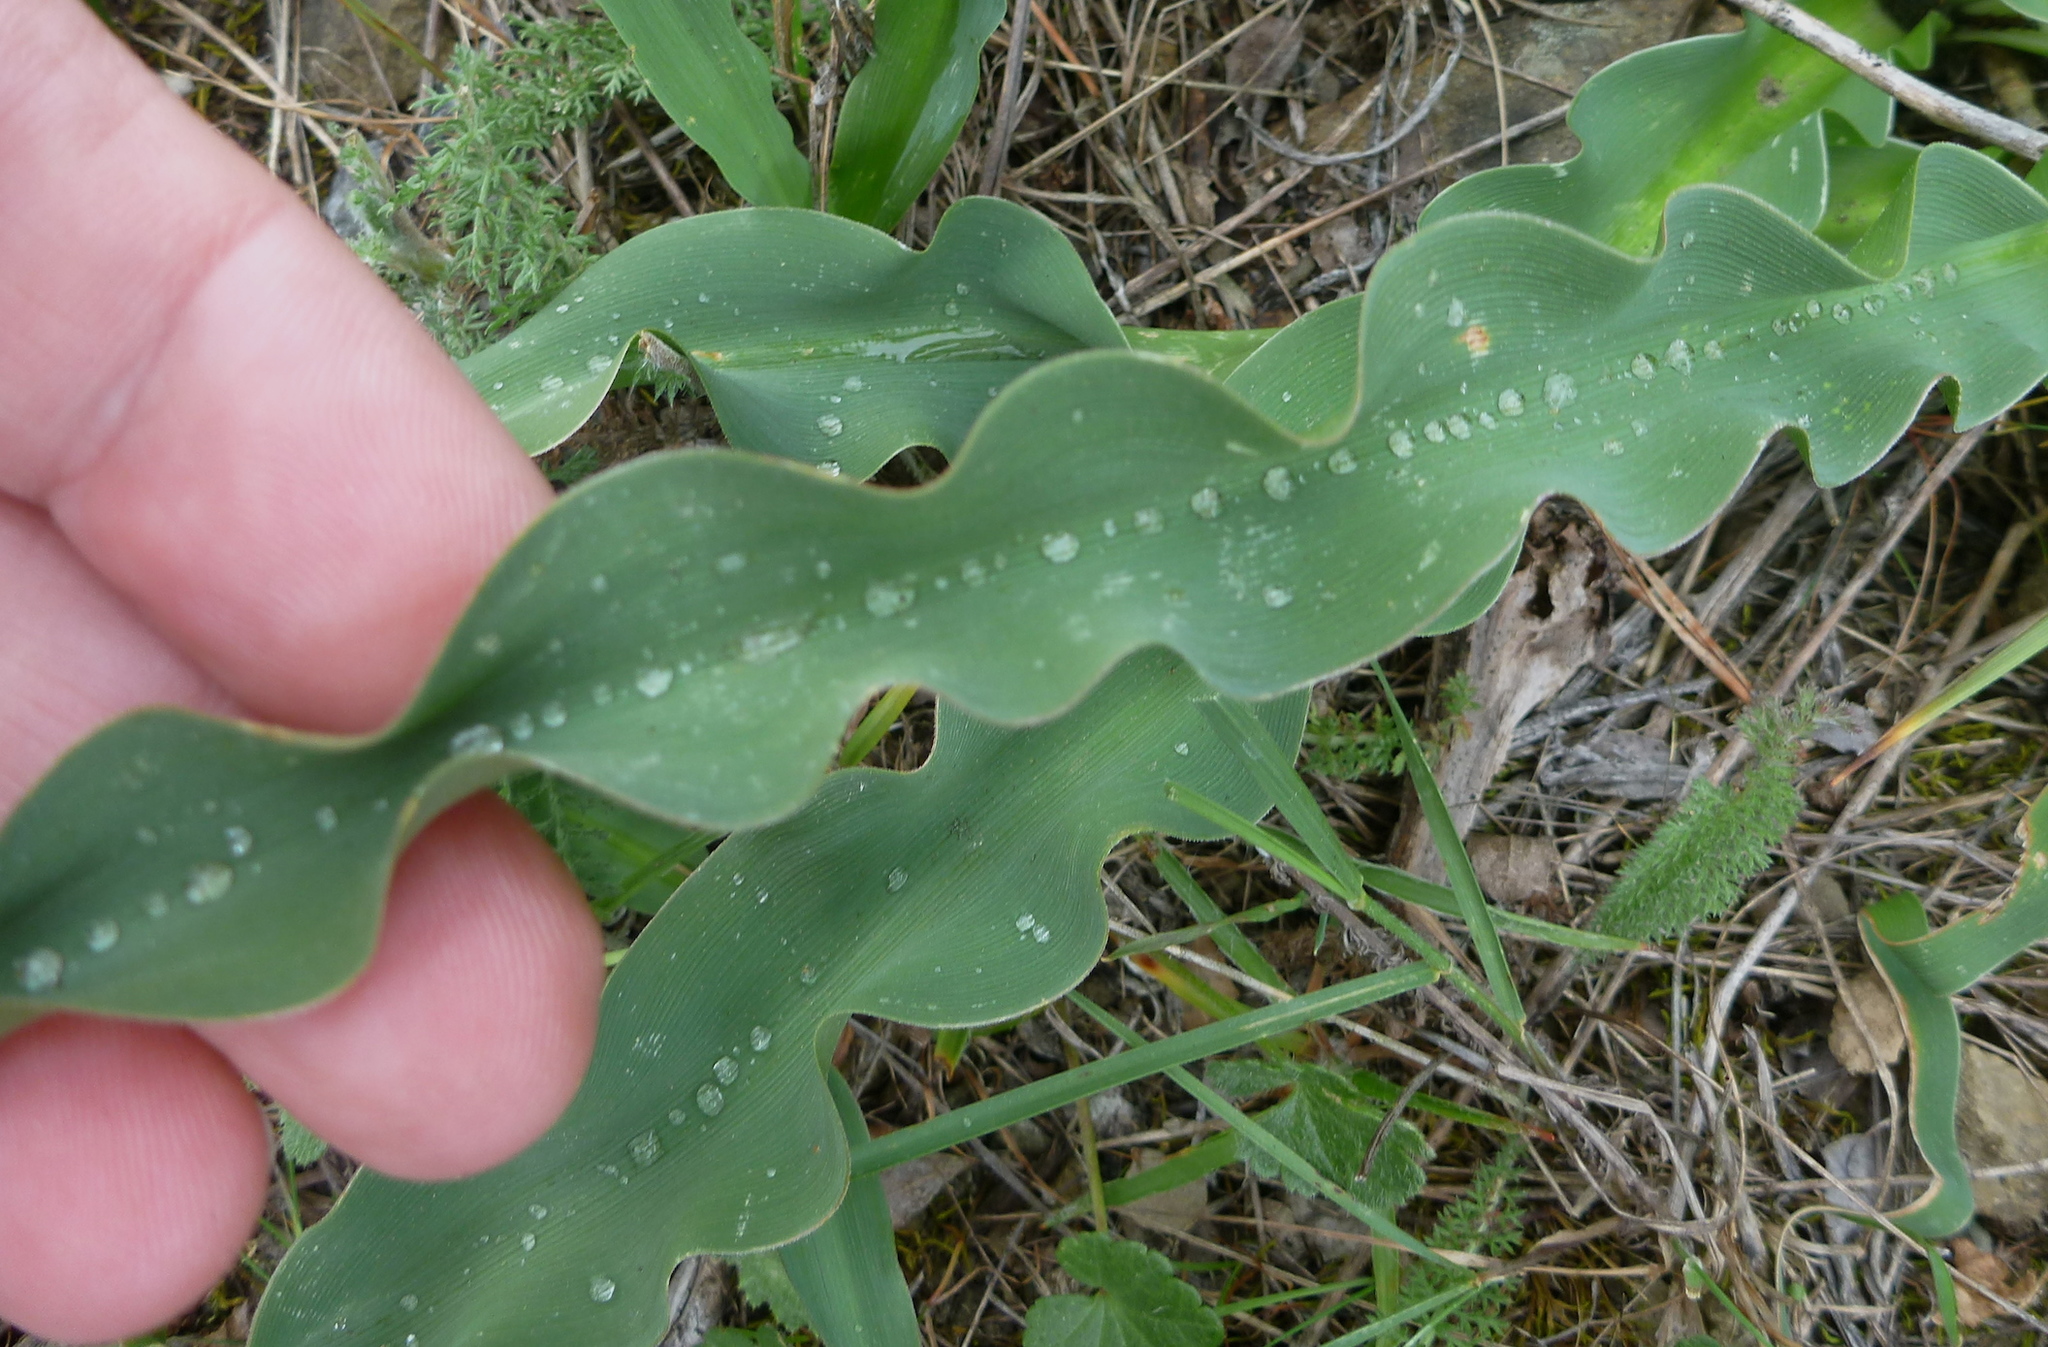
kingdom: Plantae
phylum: Tracheophyta
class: Liliopsida
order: Asparagales
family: Asparagaceae
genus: Chlorogalum
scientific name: Chlorogalum pomeridianum
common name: Amole
